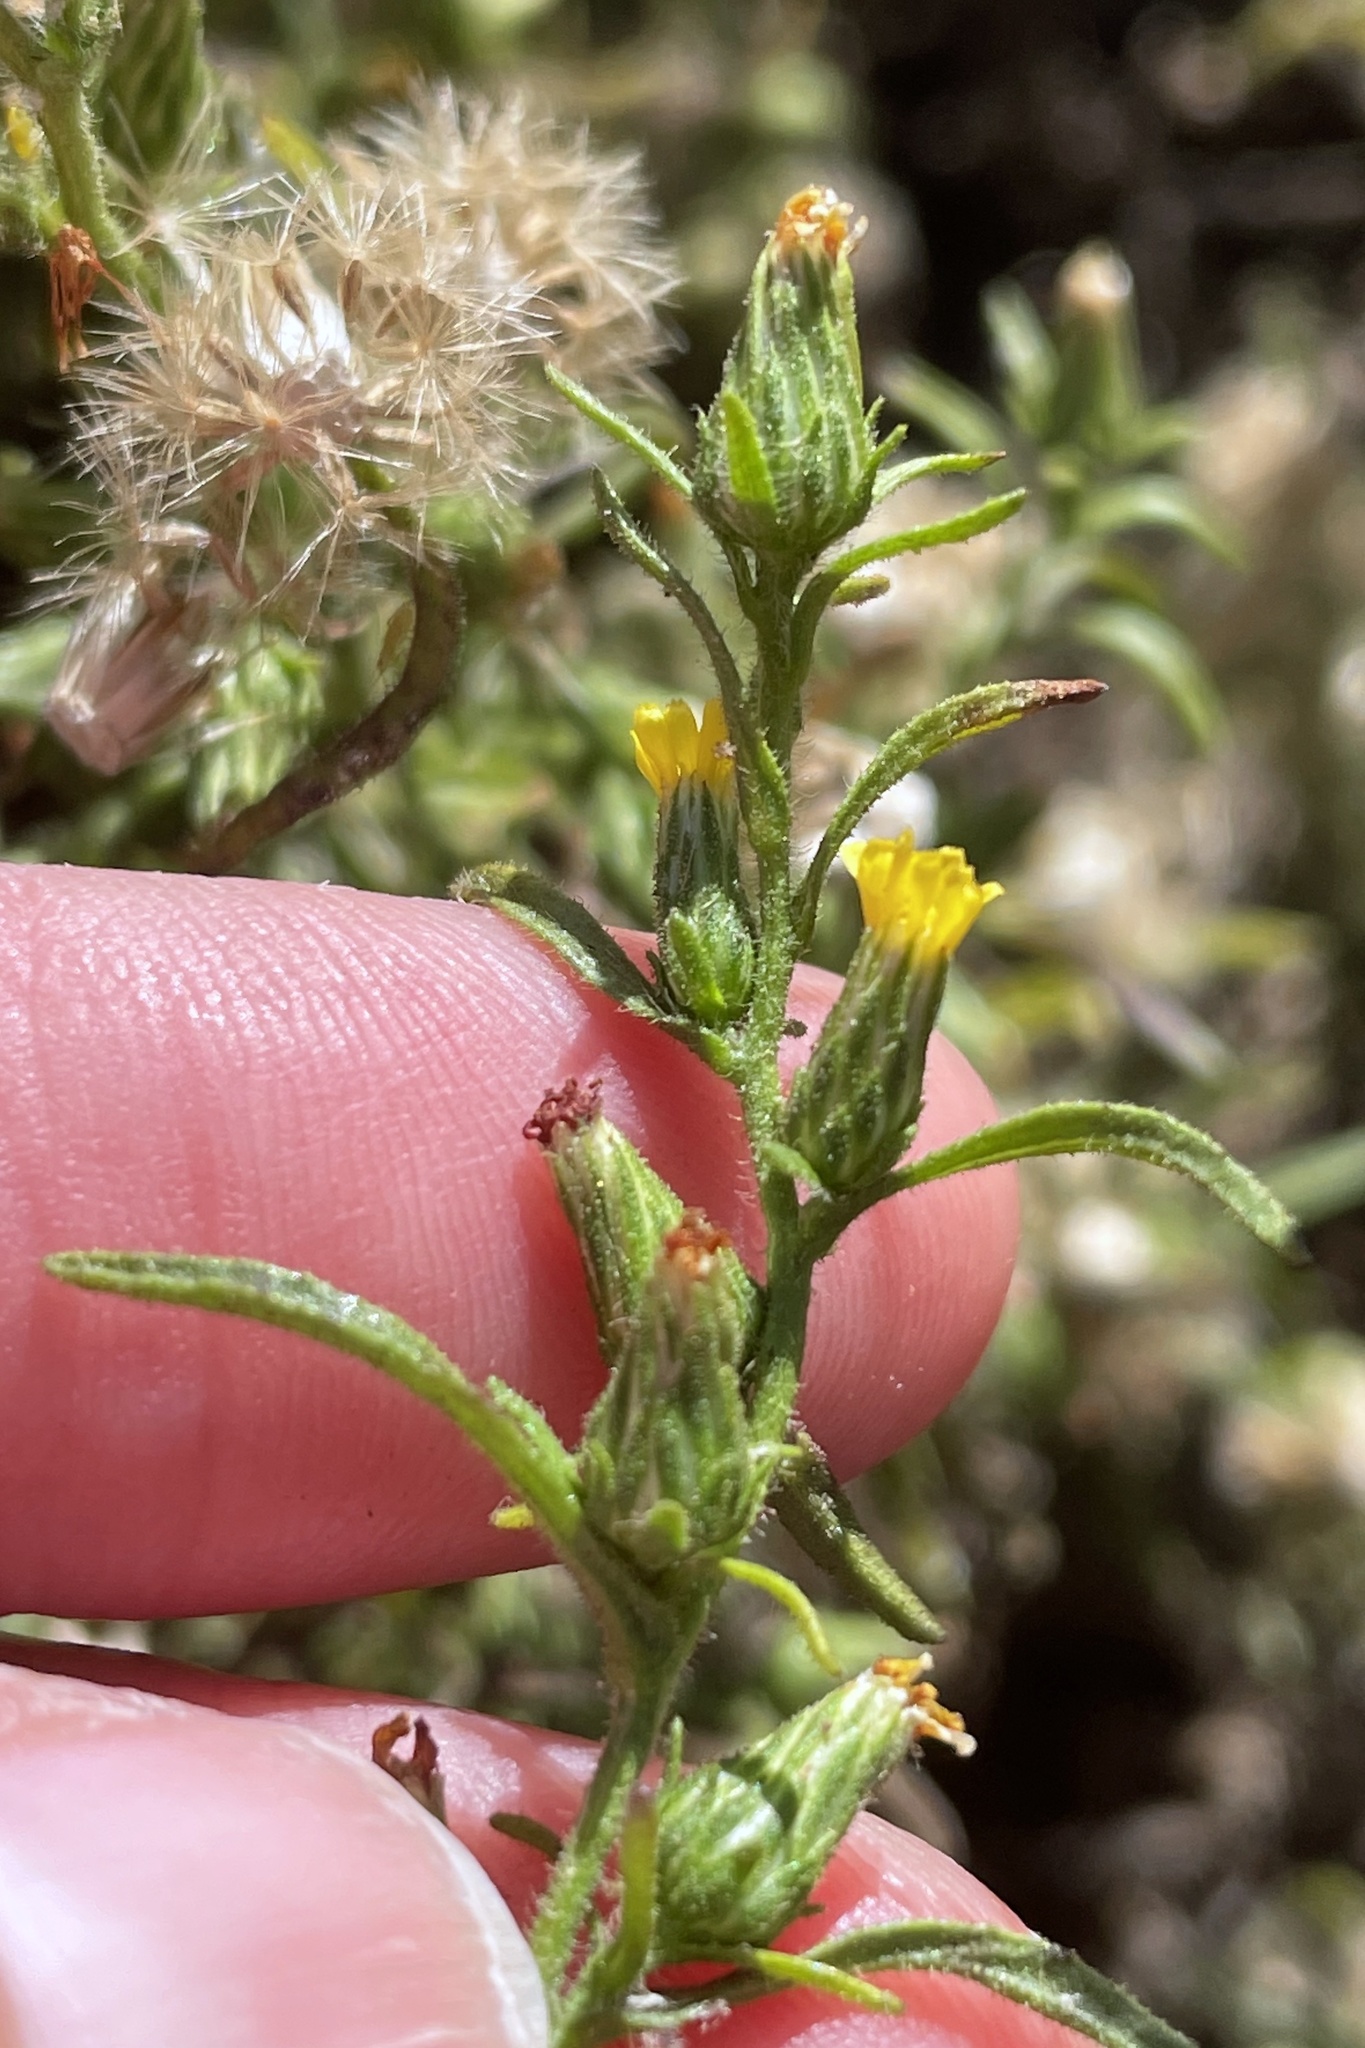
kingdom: Plantae
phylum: Tracheophyta
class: Magnoliopsida
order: Asterales
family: Asteraceae
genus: Dittrichia
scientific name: Dittrichia graveolens
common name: Stinking fleabane
